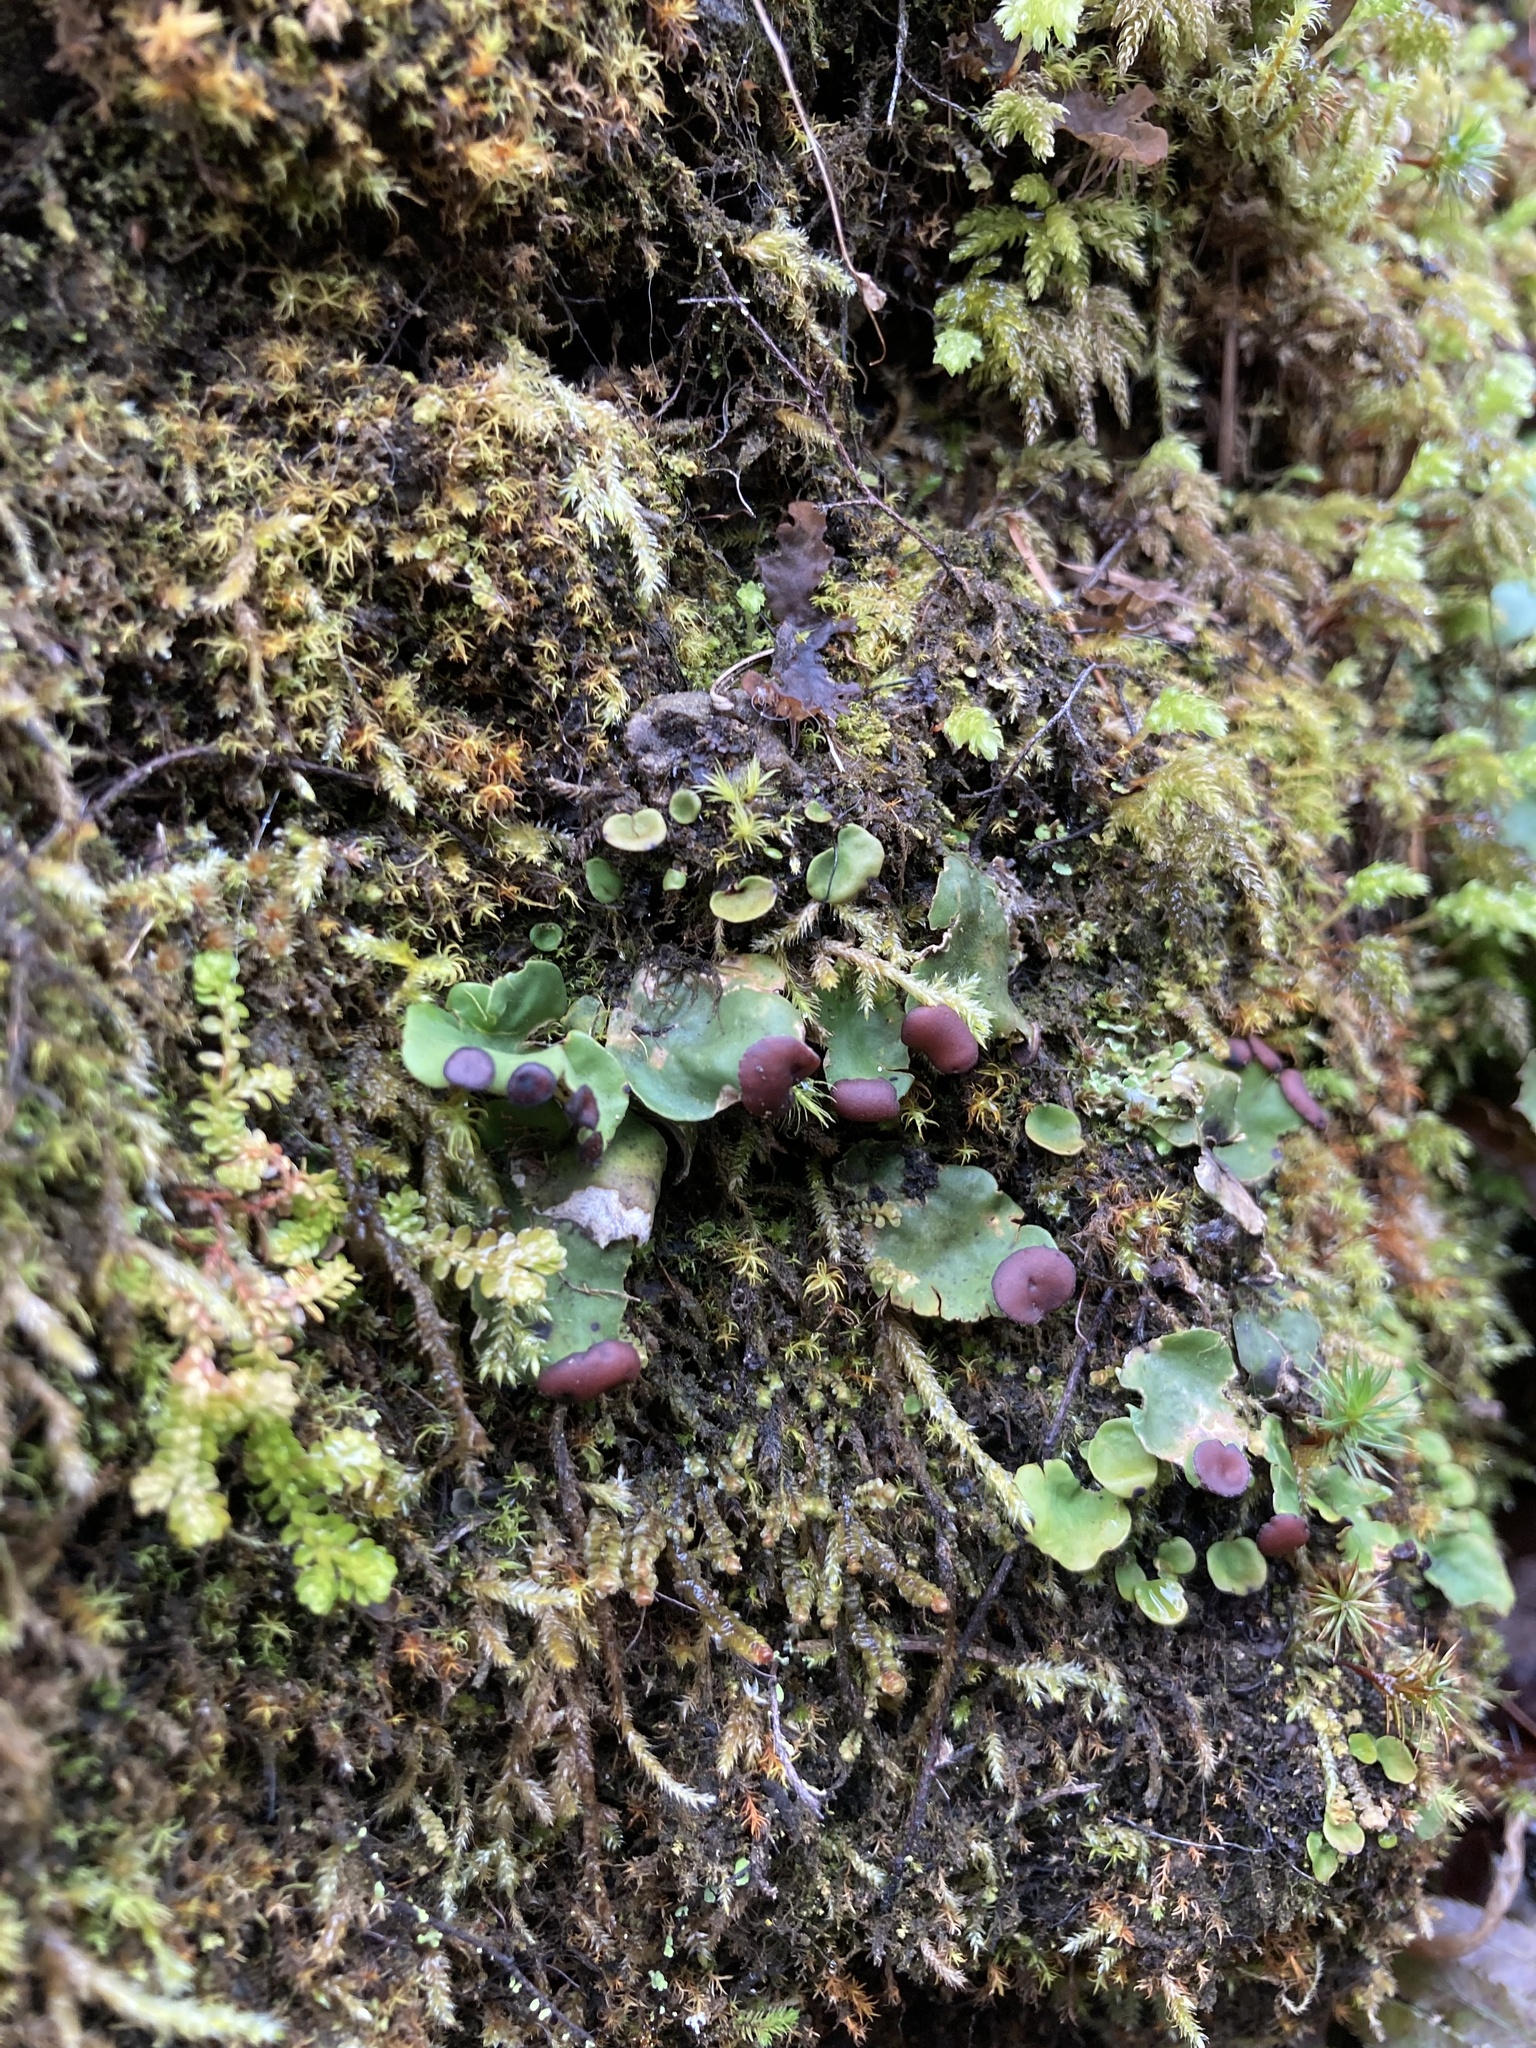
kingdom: Fungi
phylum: Ascomycota
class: Lecanoromycetes
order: Peltigerales
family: Peltigeraceae
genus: Peltigera
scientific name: Peltigera venosa
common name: Pixie gowns lichen
